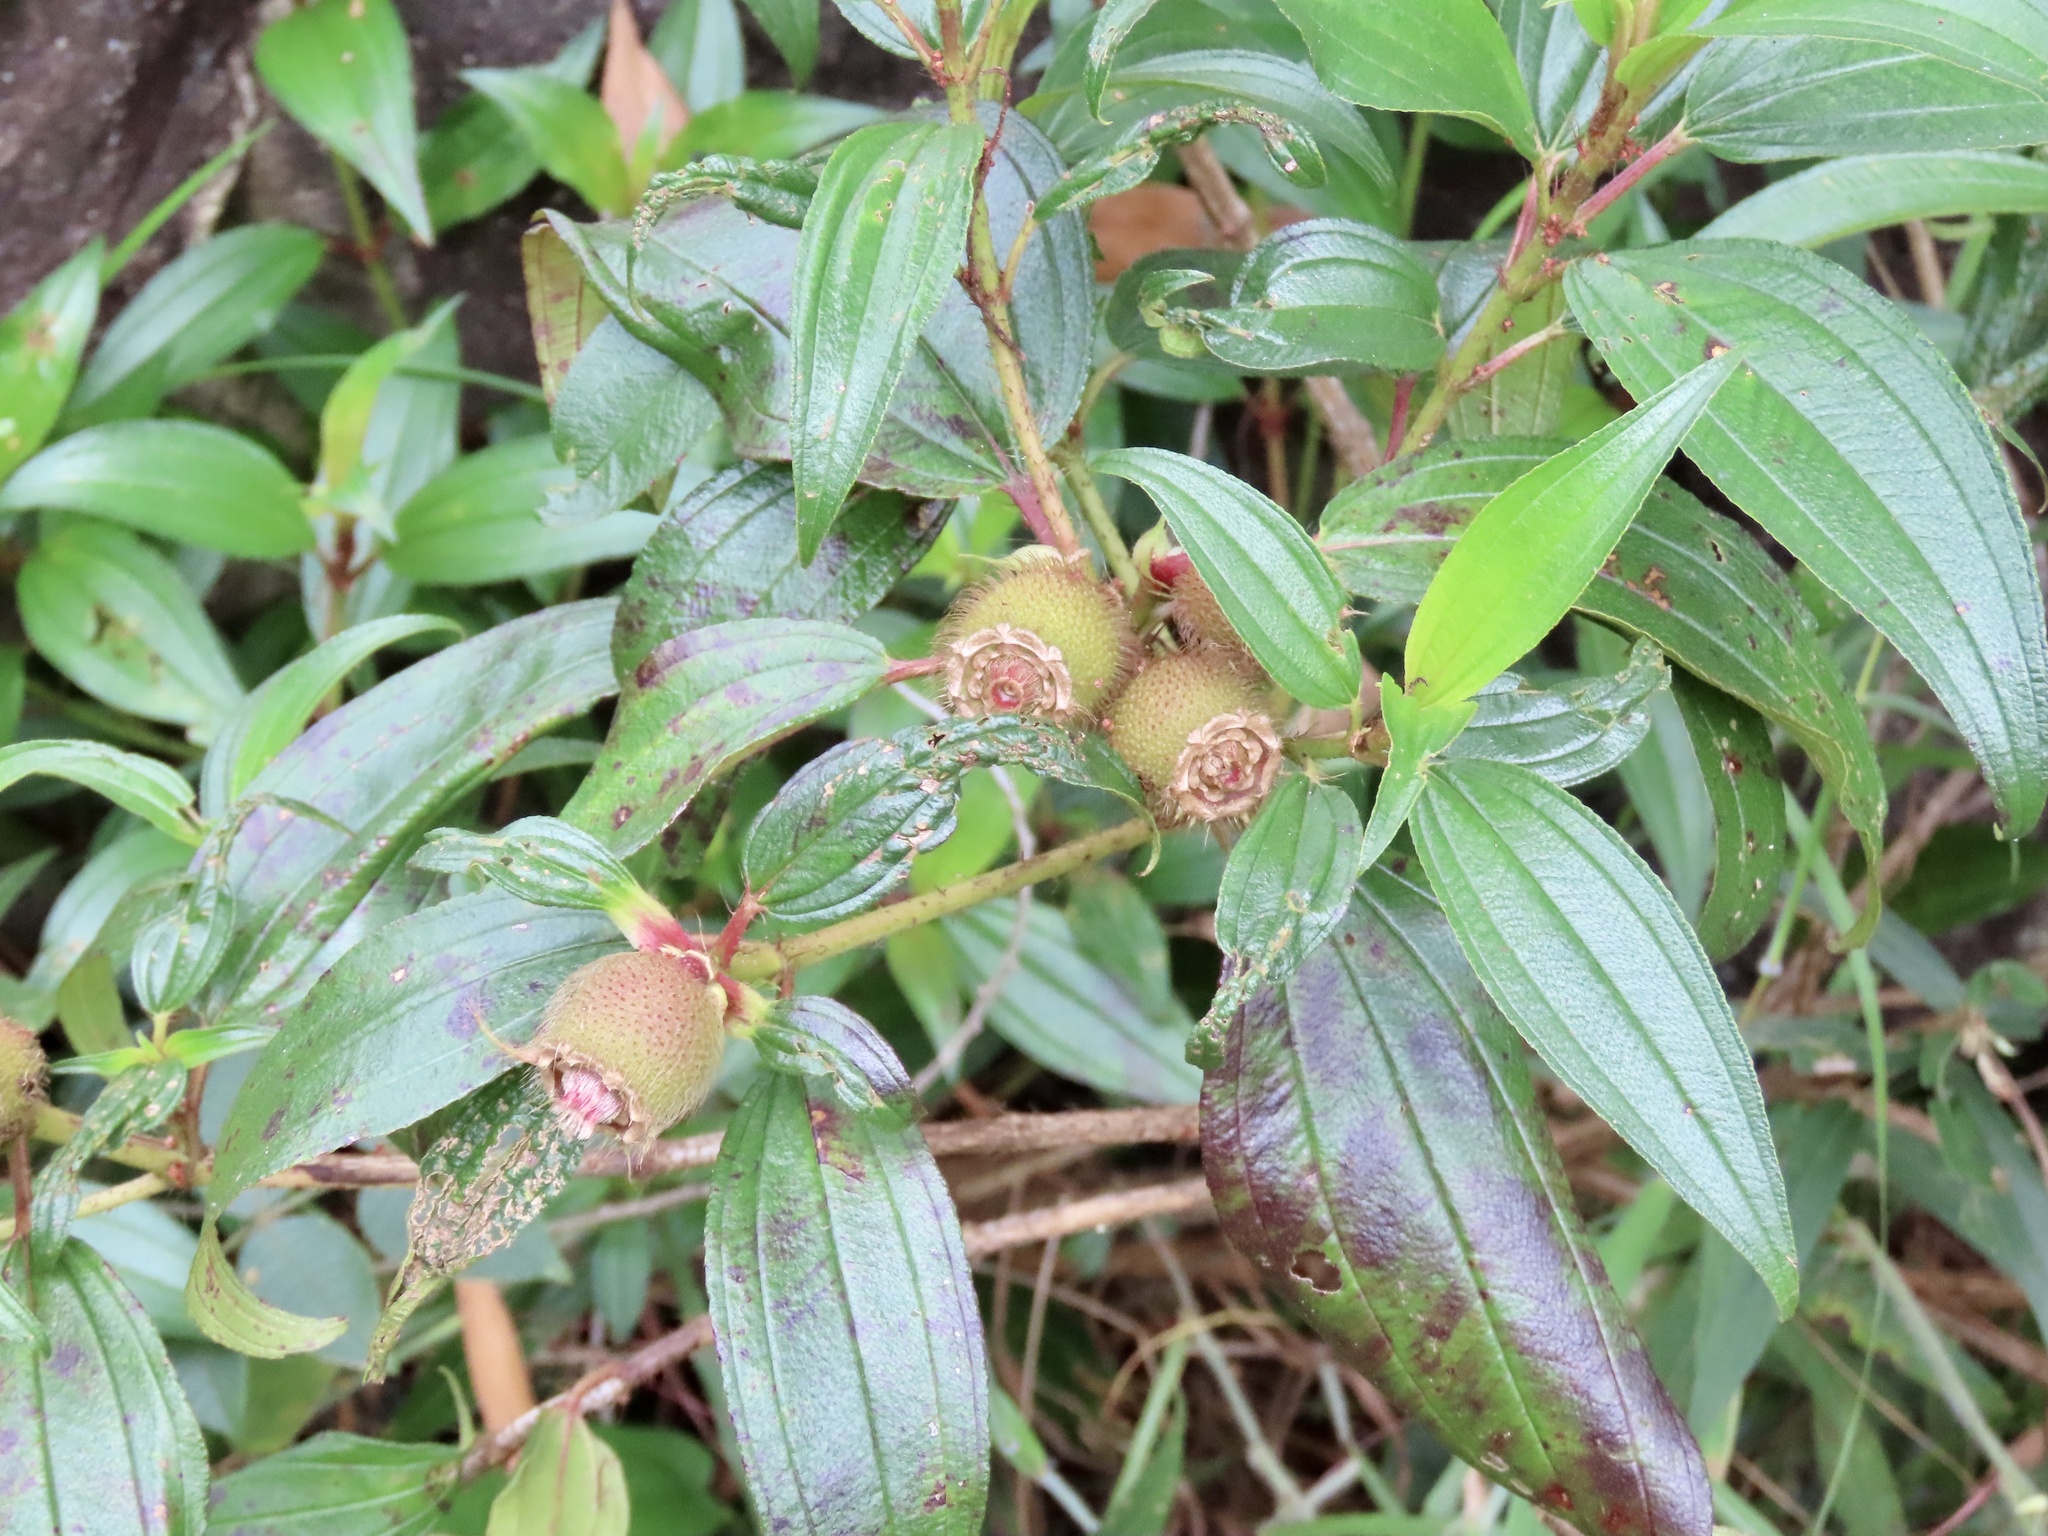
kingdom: Plantae
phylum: Tracheophyta
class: Magnoliopsida
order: Myrtales
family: Melastomataceae
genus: Melastoma
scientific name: Melastoma sanguineum
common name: Red melastome
